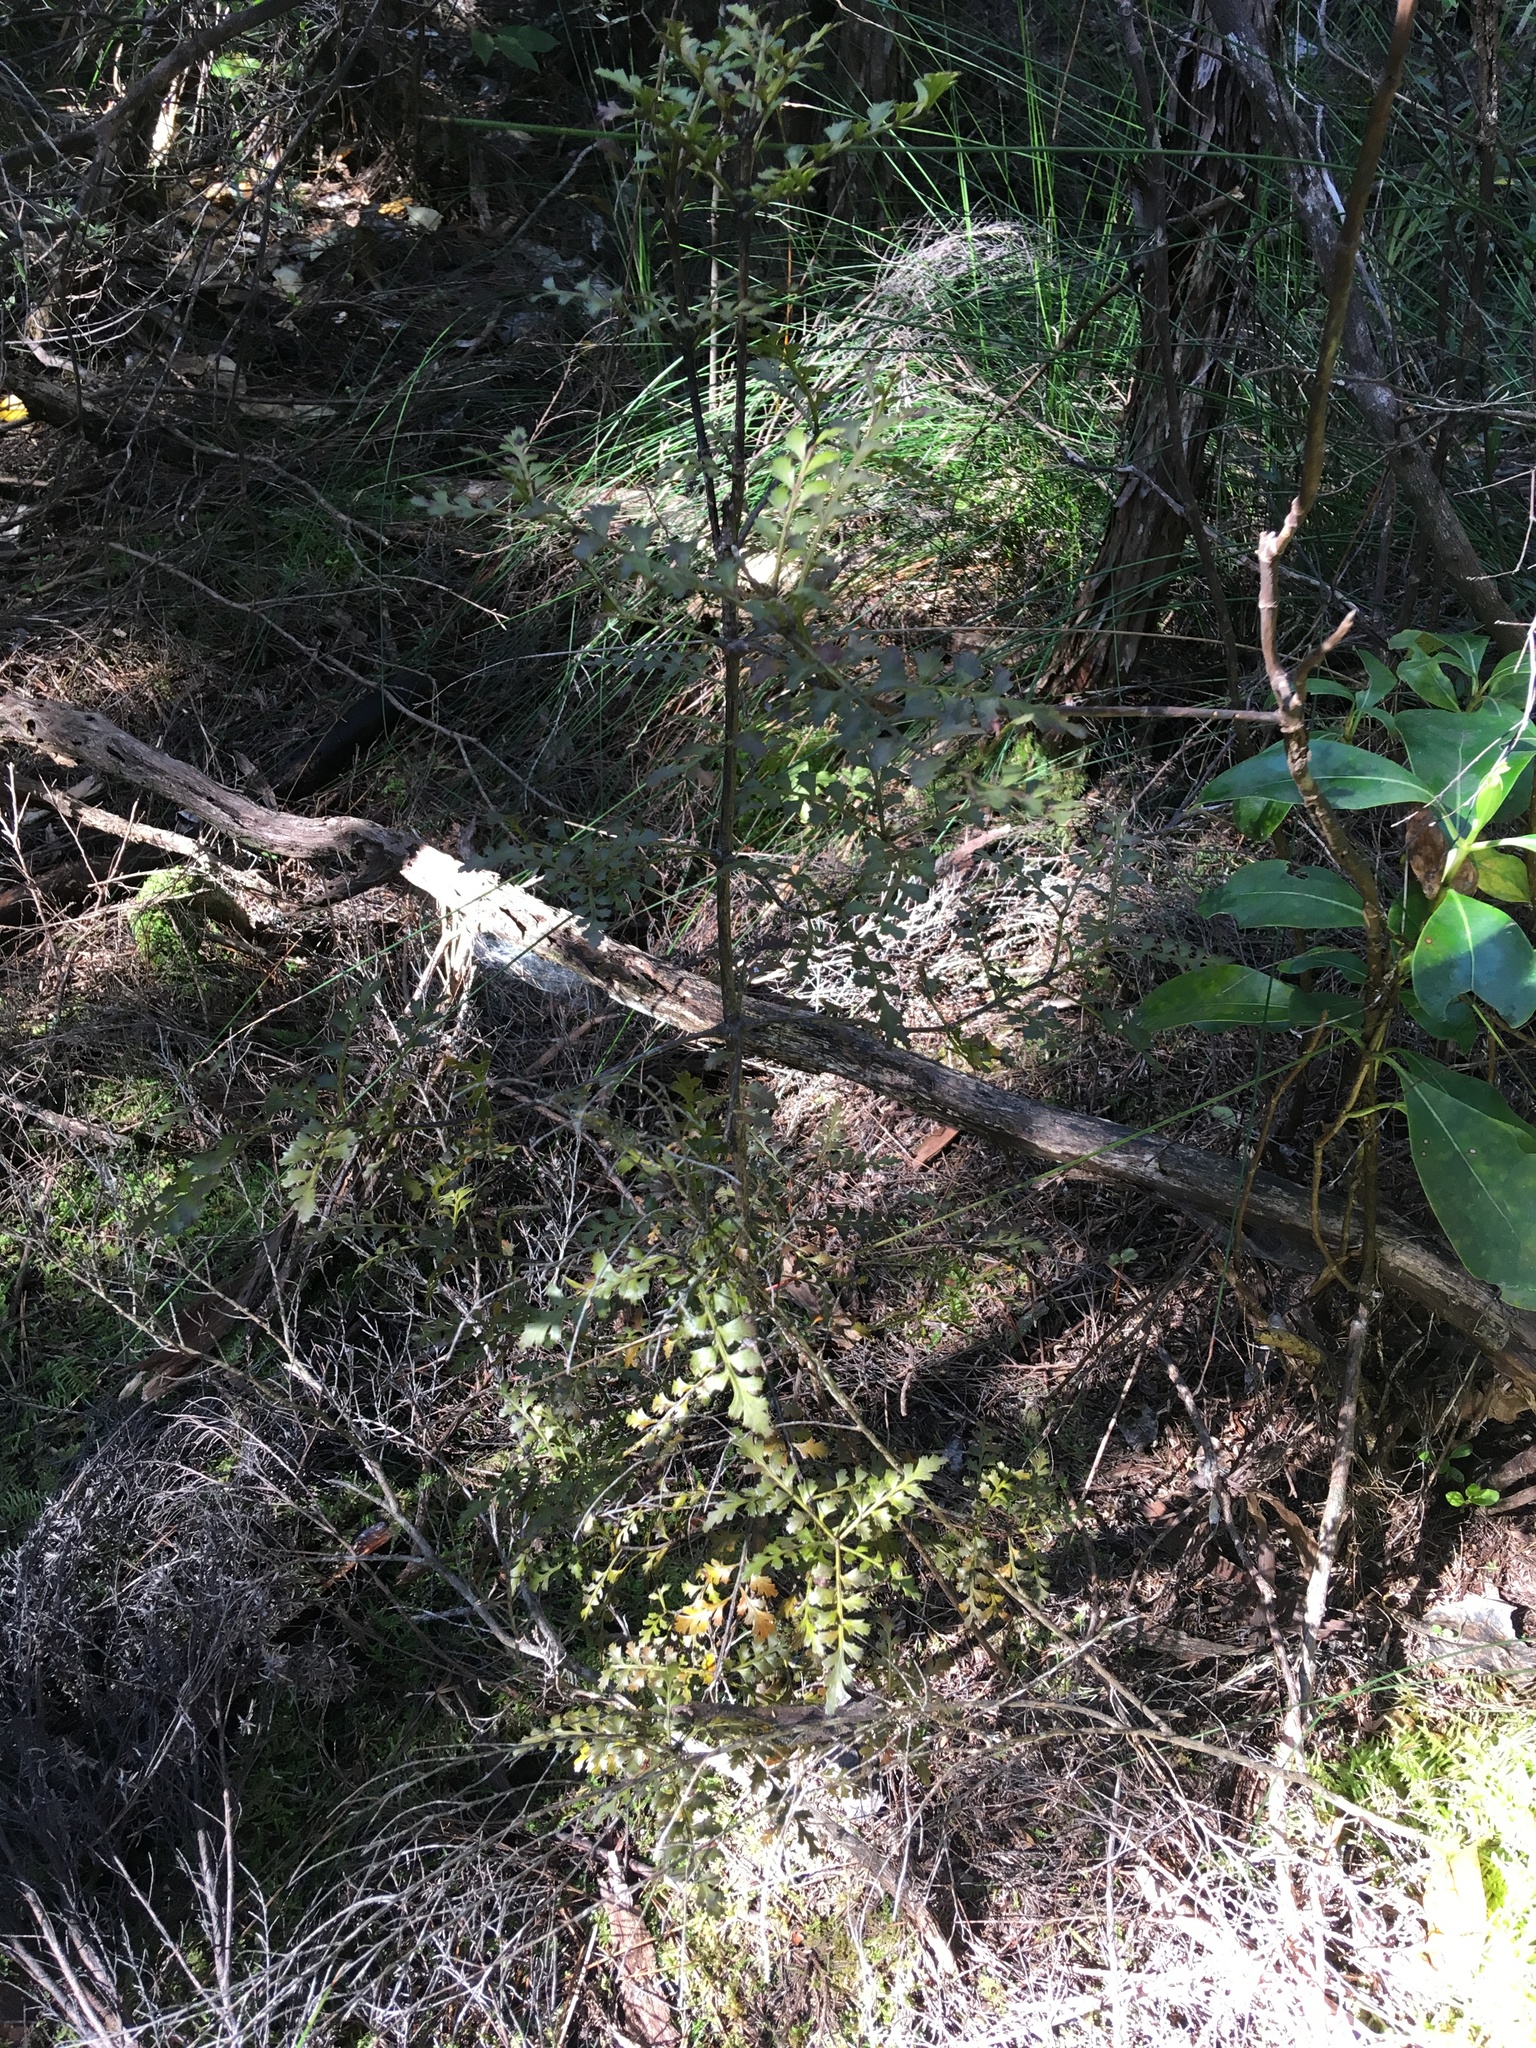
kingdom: Plantae
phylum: Tracheophyta
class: Pinopsida
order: Pinales
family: Phyllocladaceae
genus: Phyllocladus
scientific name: Phyllocladus trichomanoides
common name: Celery pine
